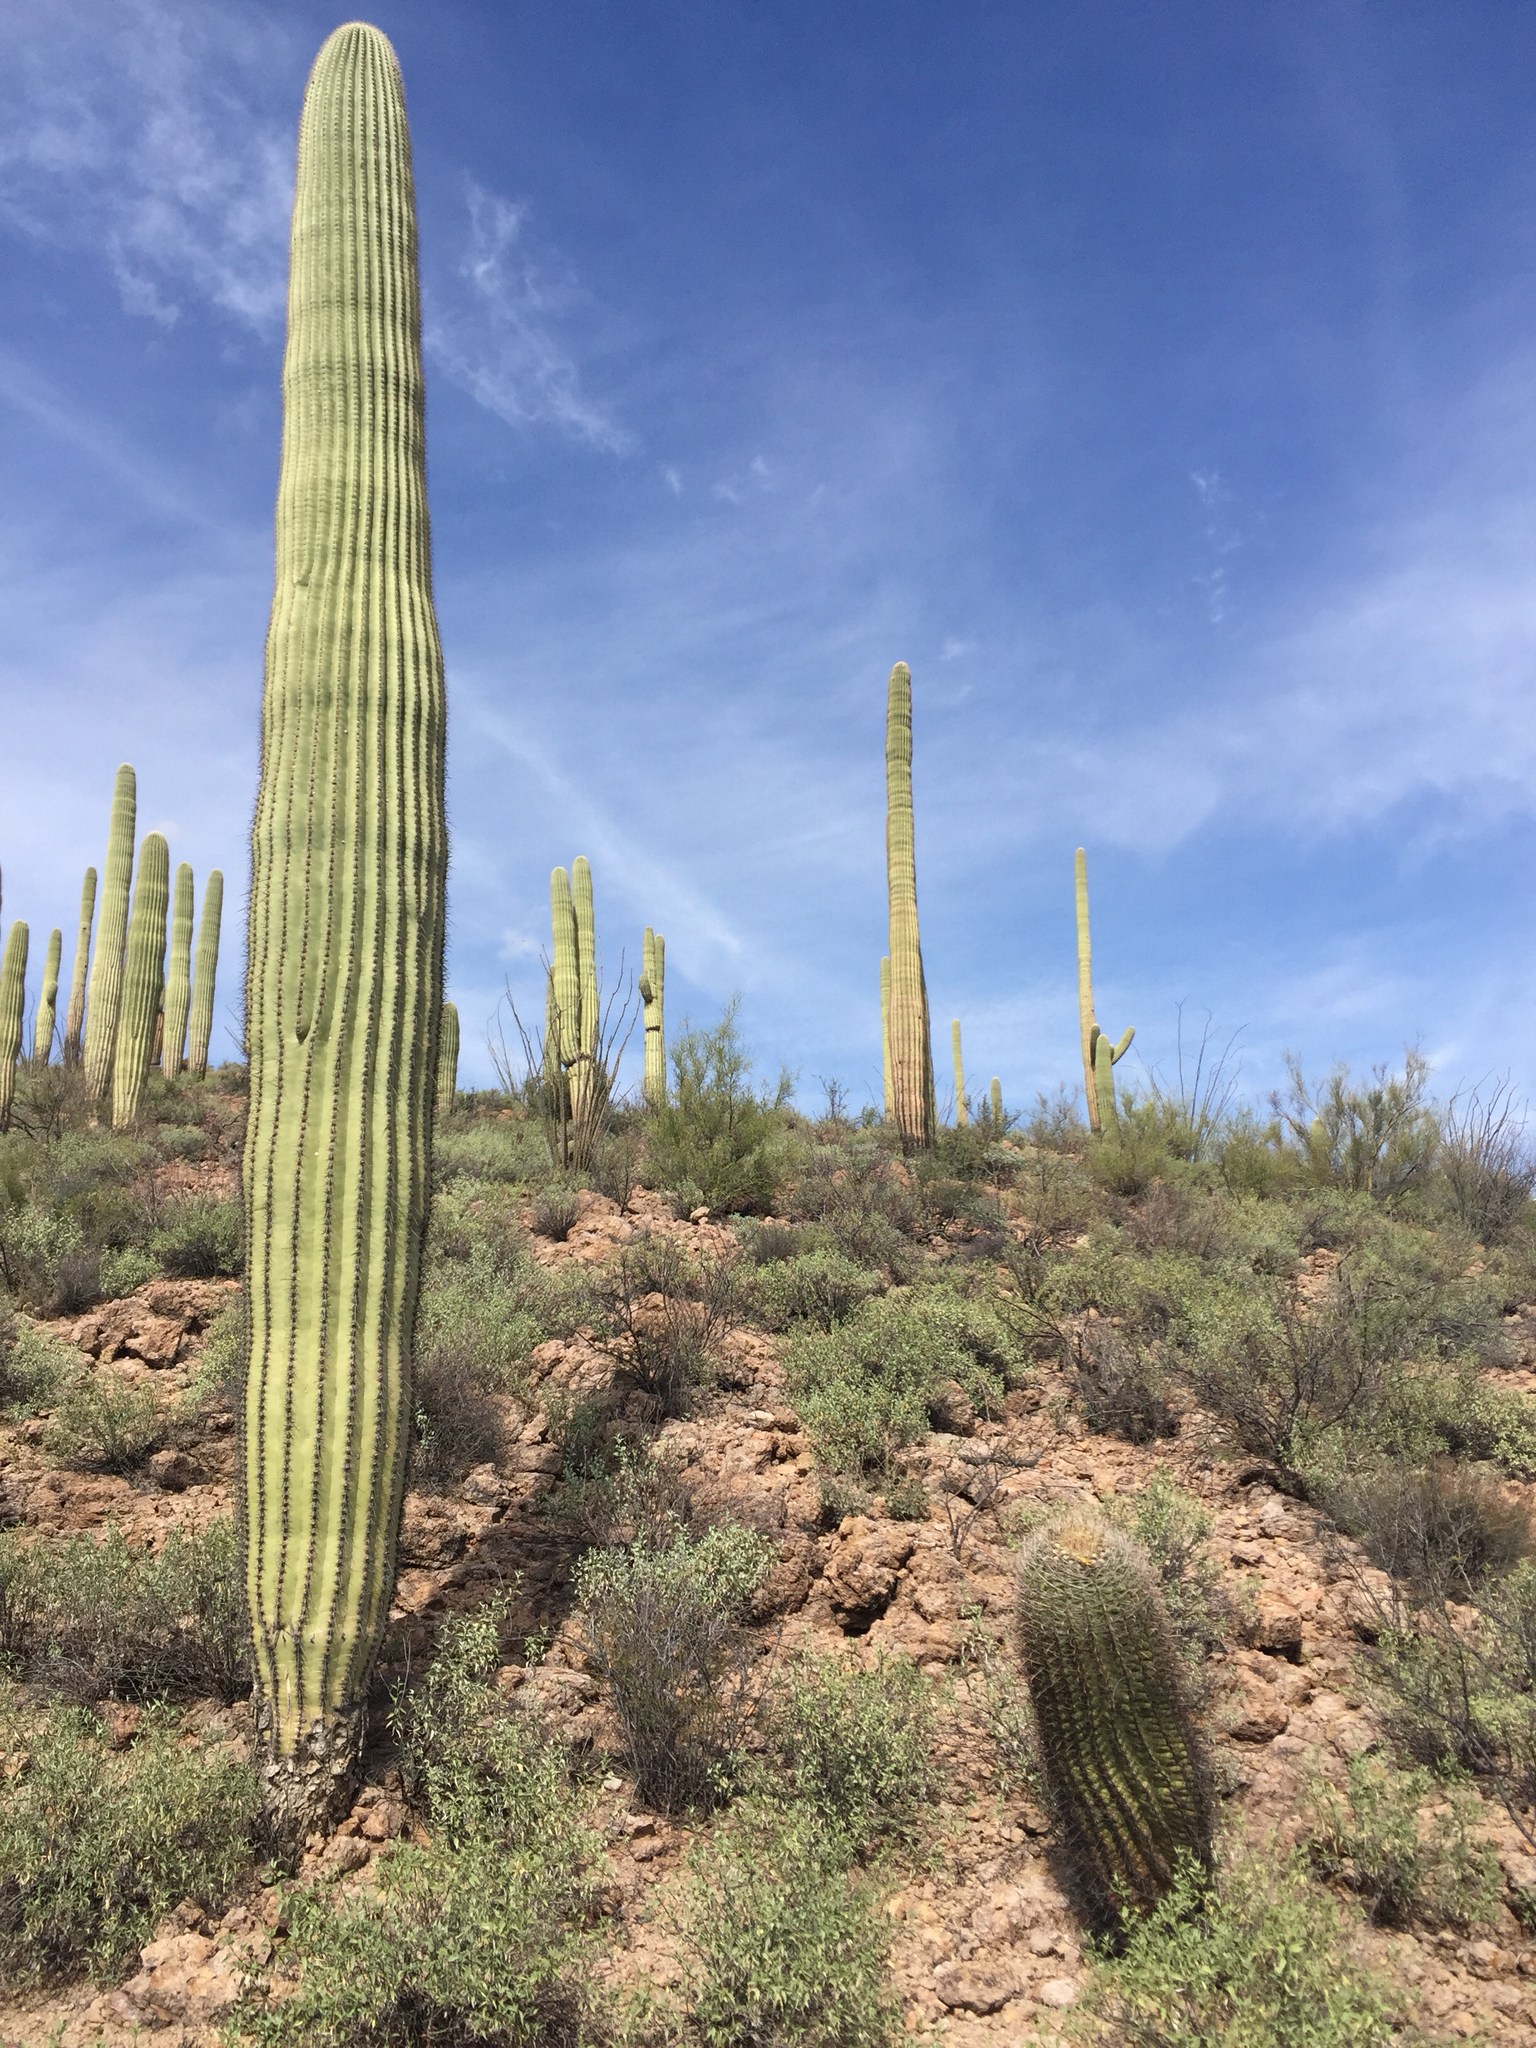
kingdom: Plantae
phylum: Tracheophyta
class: Magnoliopsida
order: Caryophyllales
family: Cactaceae
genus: Carnegiea
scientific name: Carnegiea gigantea
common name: Saguaro
